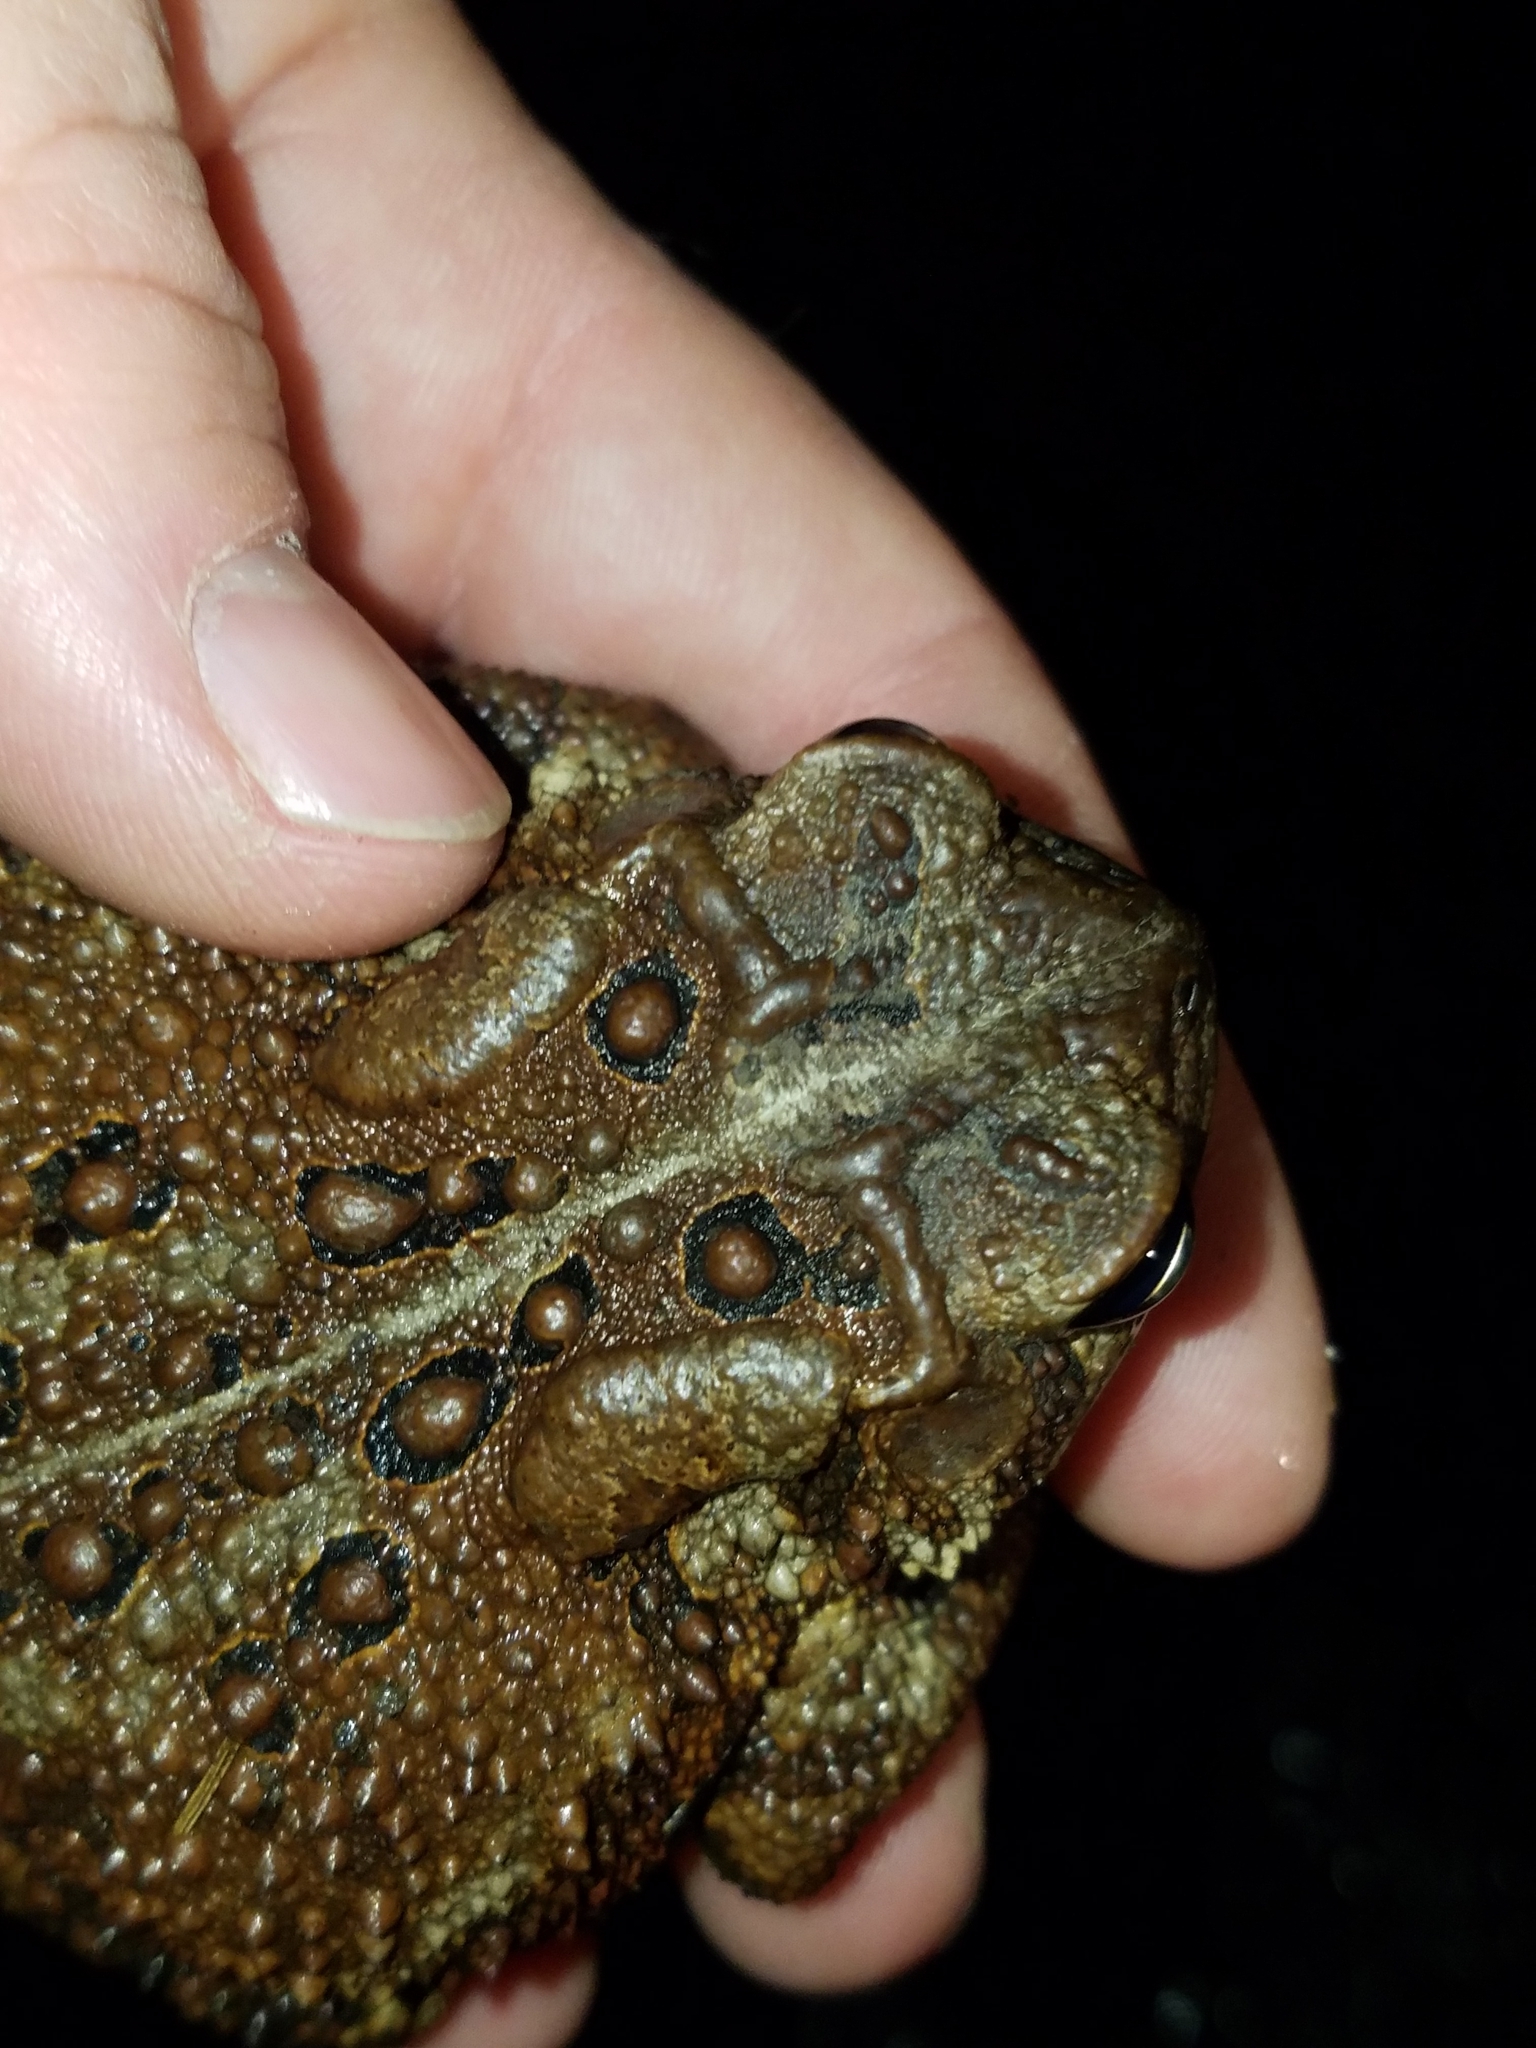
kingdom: Animalia
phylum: Chordata
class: Amphibia
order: Anura
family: Bufonidae
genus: Anaxyrus
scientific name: Anaxyrus americanus
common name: American toad
